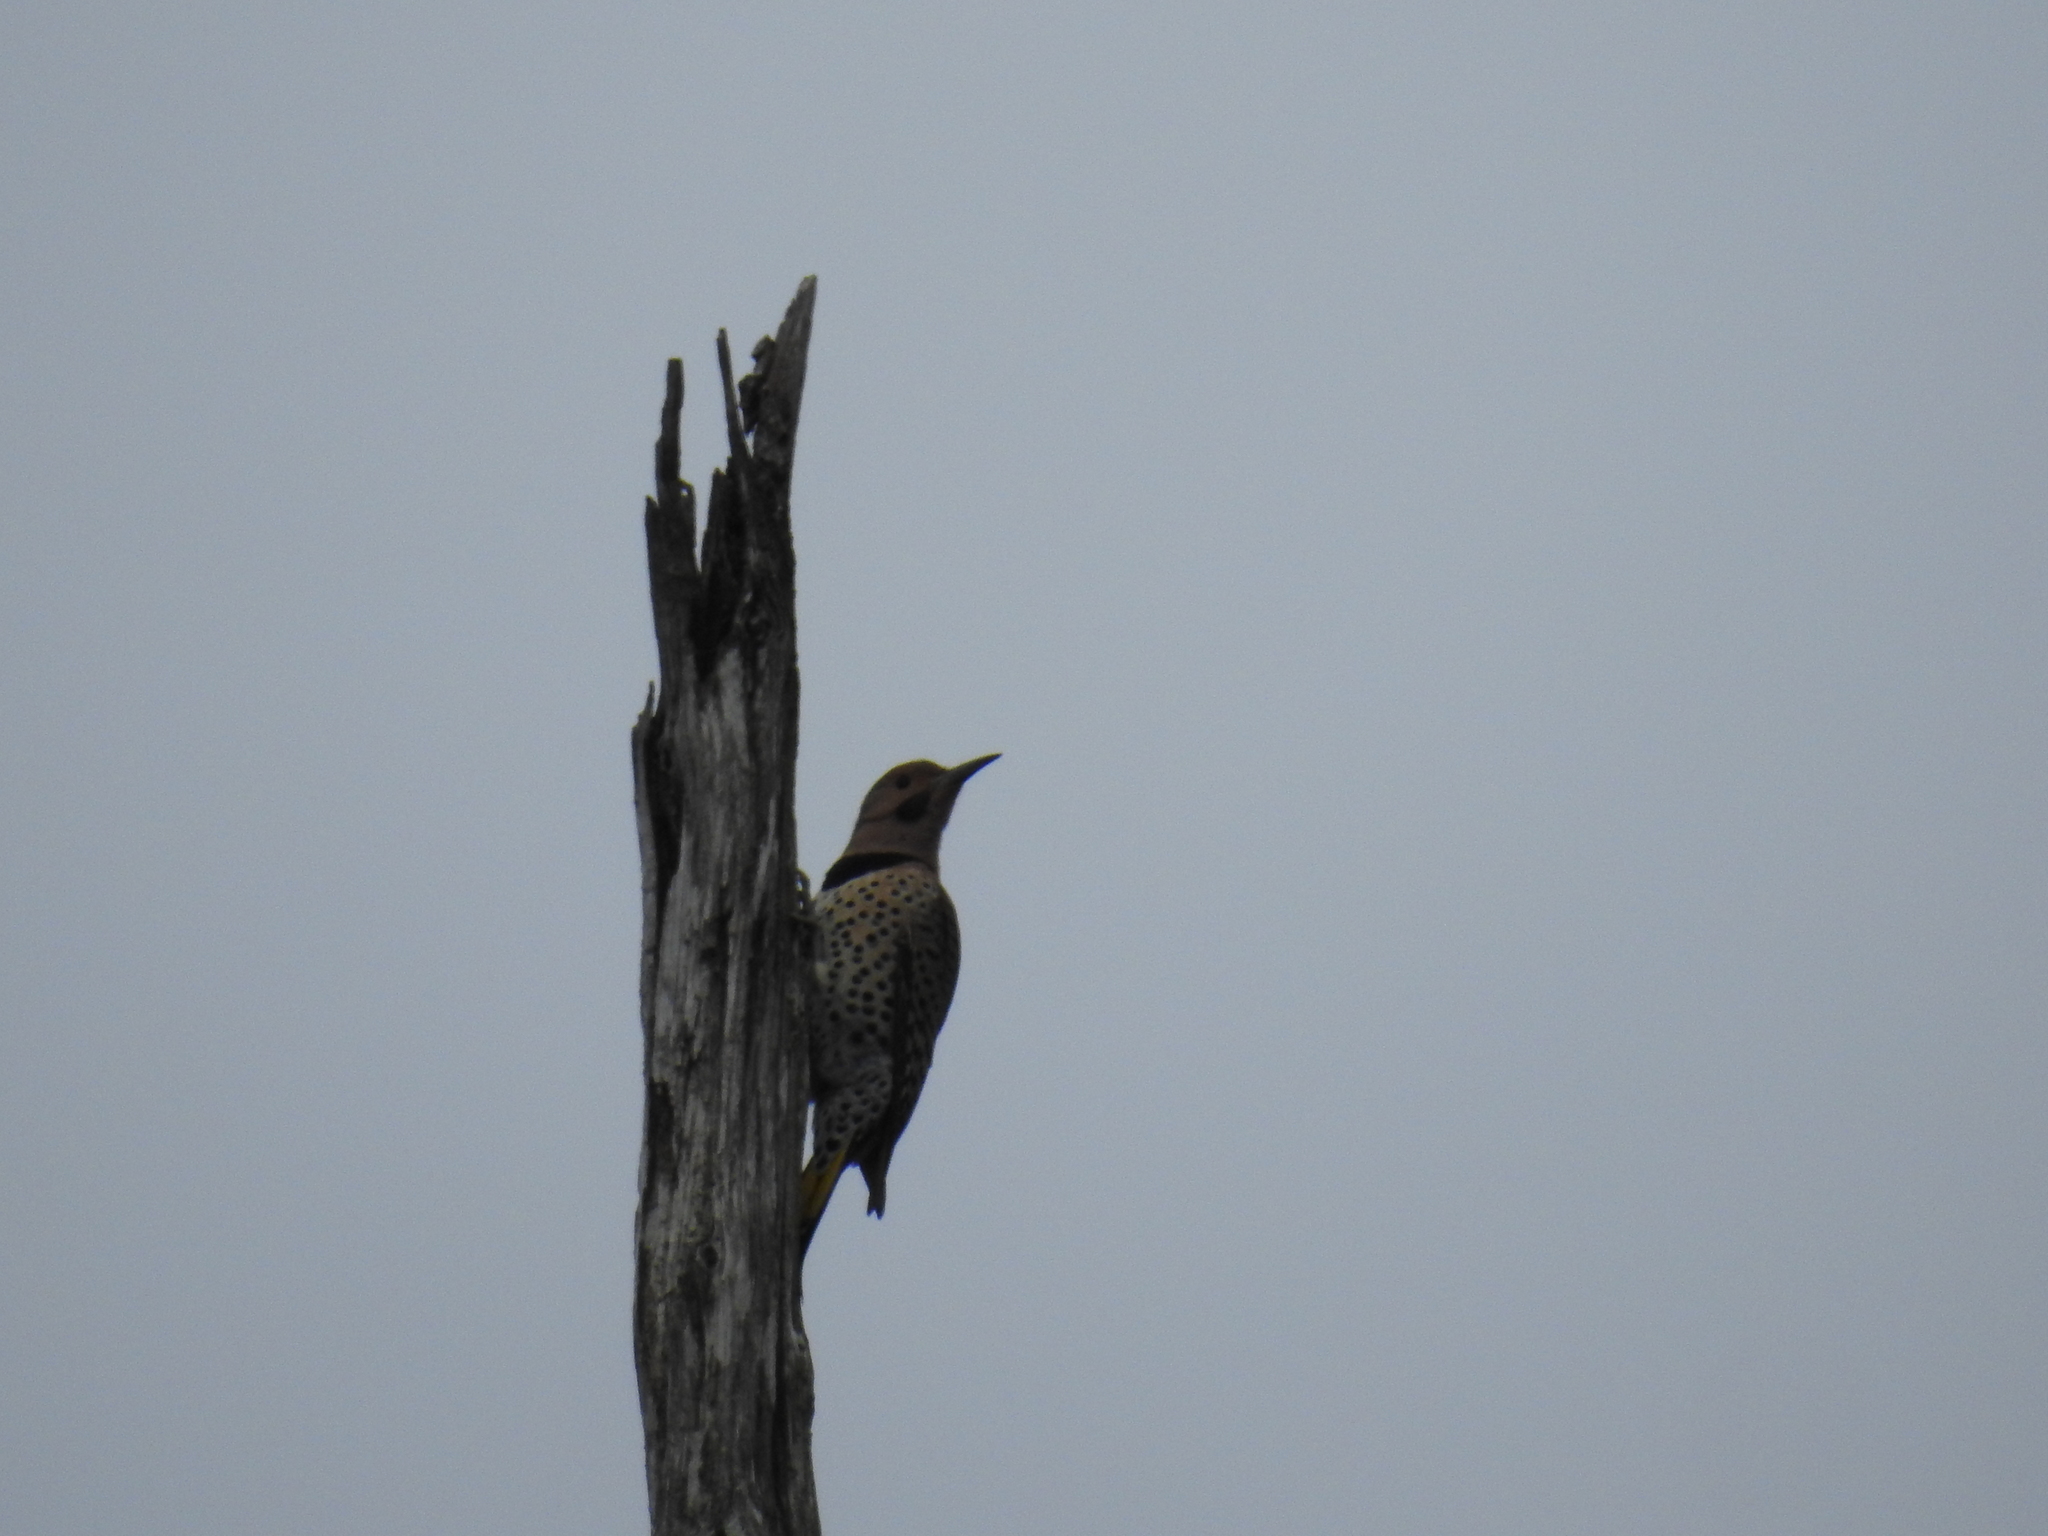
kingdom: Animalia
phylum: Chordata
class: Aves
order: Piciformes
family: Picidae
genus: Colaptes
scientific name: Colaptes auratus
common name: Northern flicker
